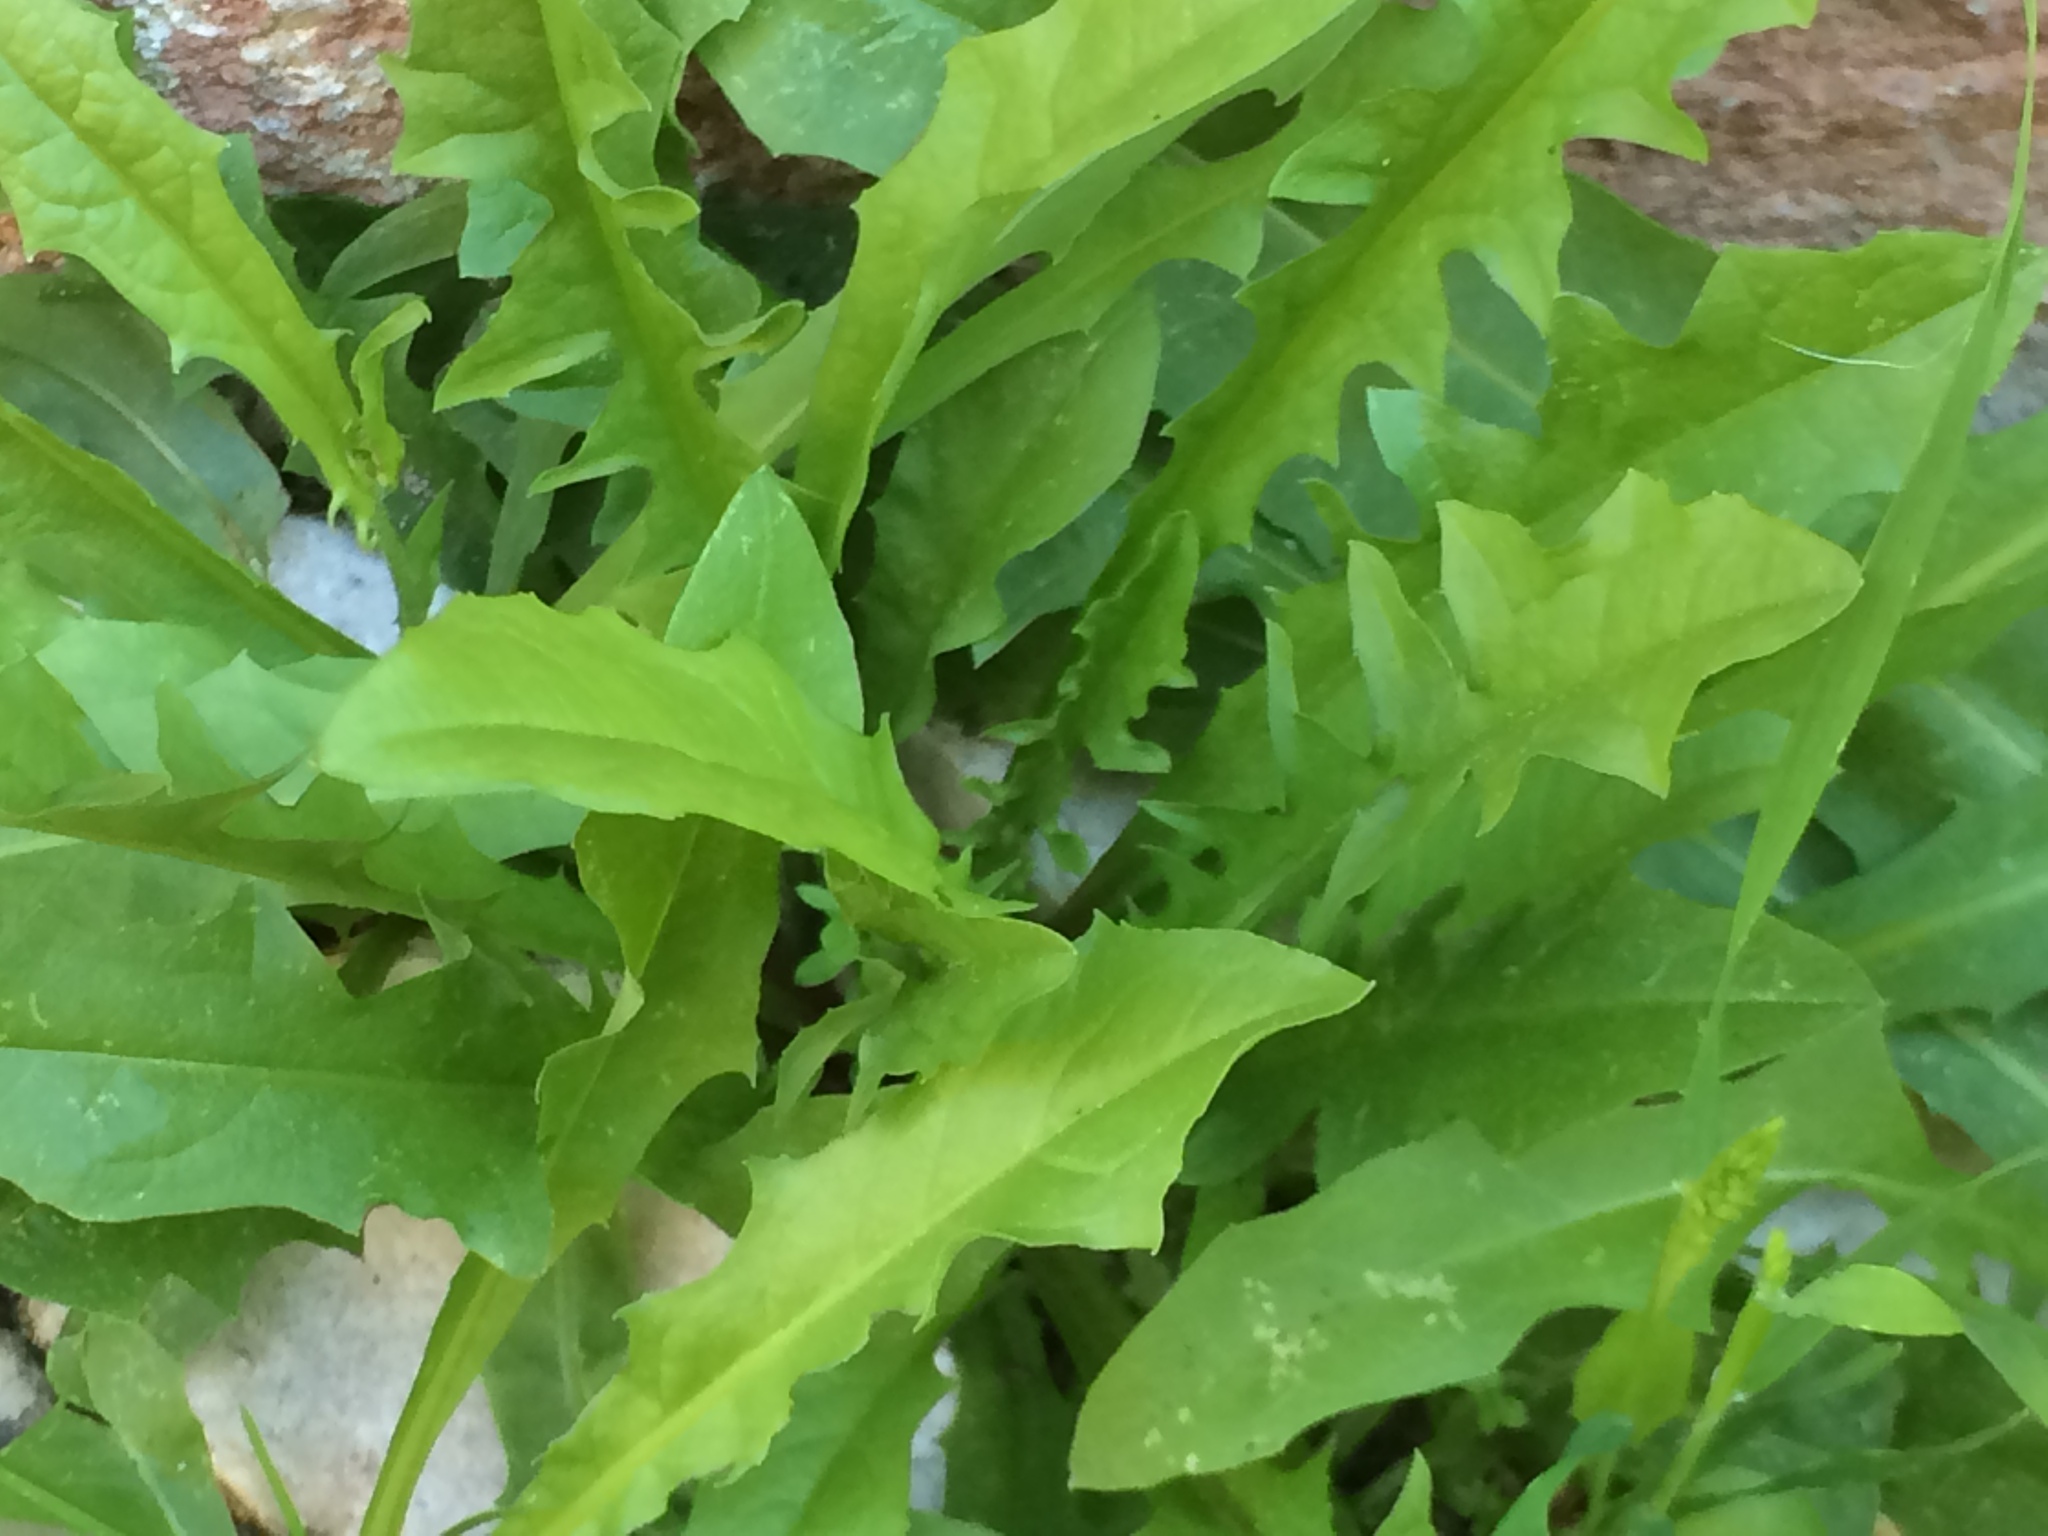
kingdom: Plantae
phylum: Tracheophyta
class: Magnoliopsida
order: Asterales
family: Asteraceae
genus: Taraxacum
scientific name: Taraxacum officinale
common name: Common dandelion
